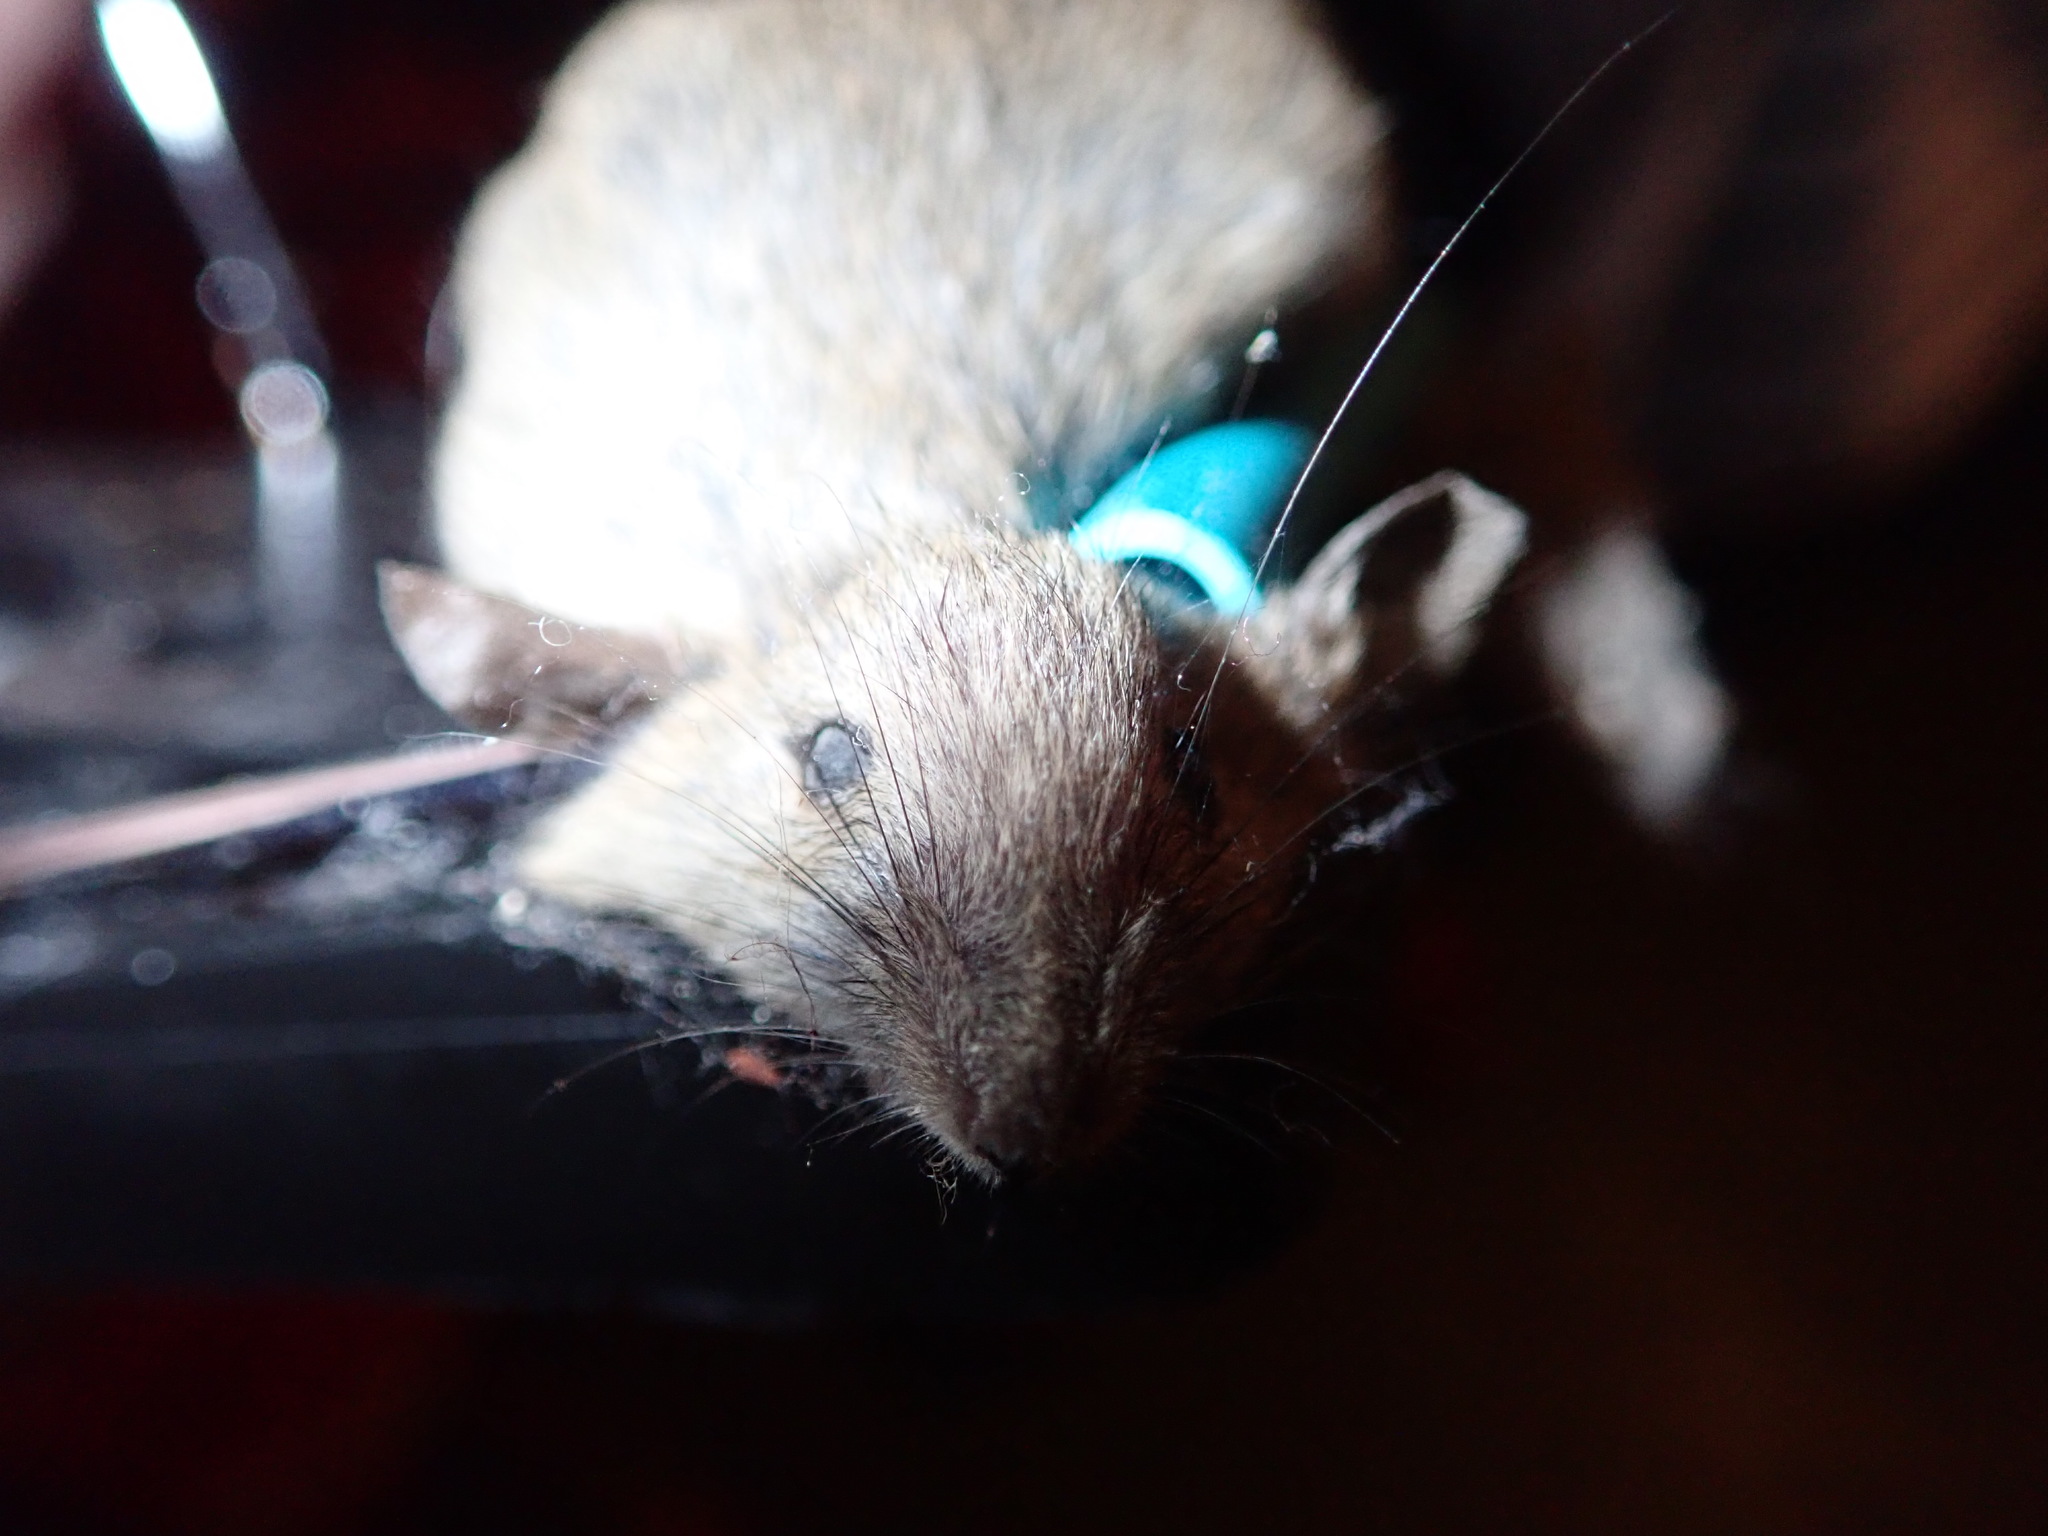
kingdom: Animalia
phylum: Chordata
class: Mammalia
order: Rodentia
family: Muridae
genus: Mus
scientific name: Mus musculus
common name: House mouse
